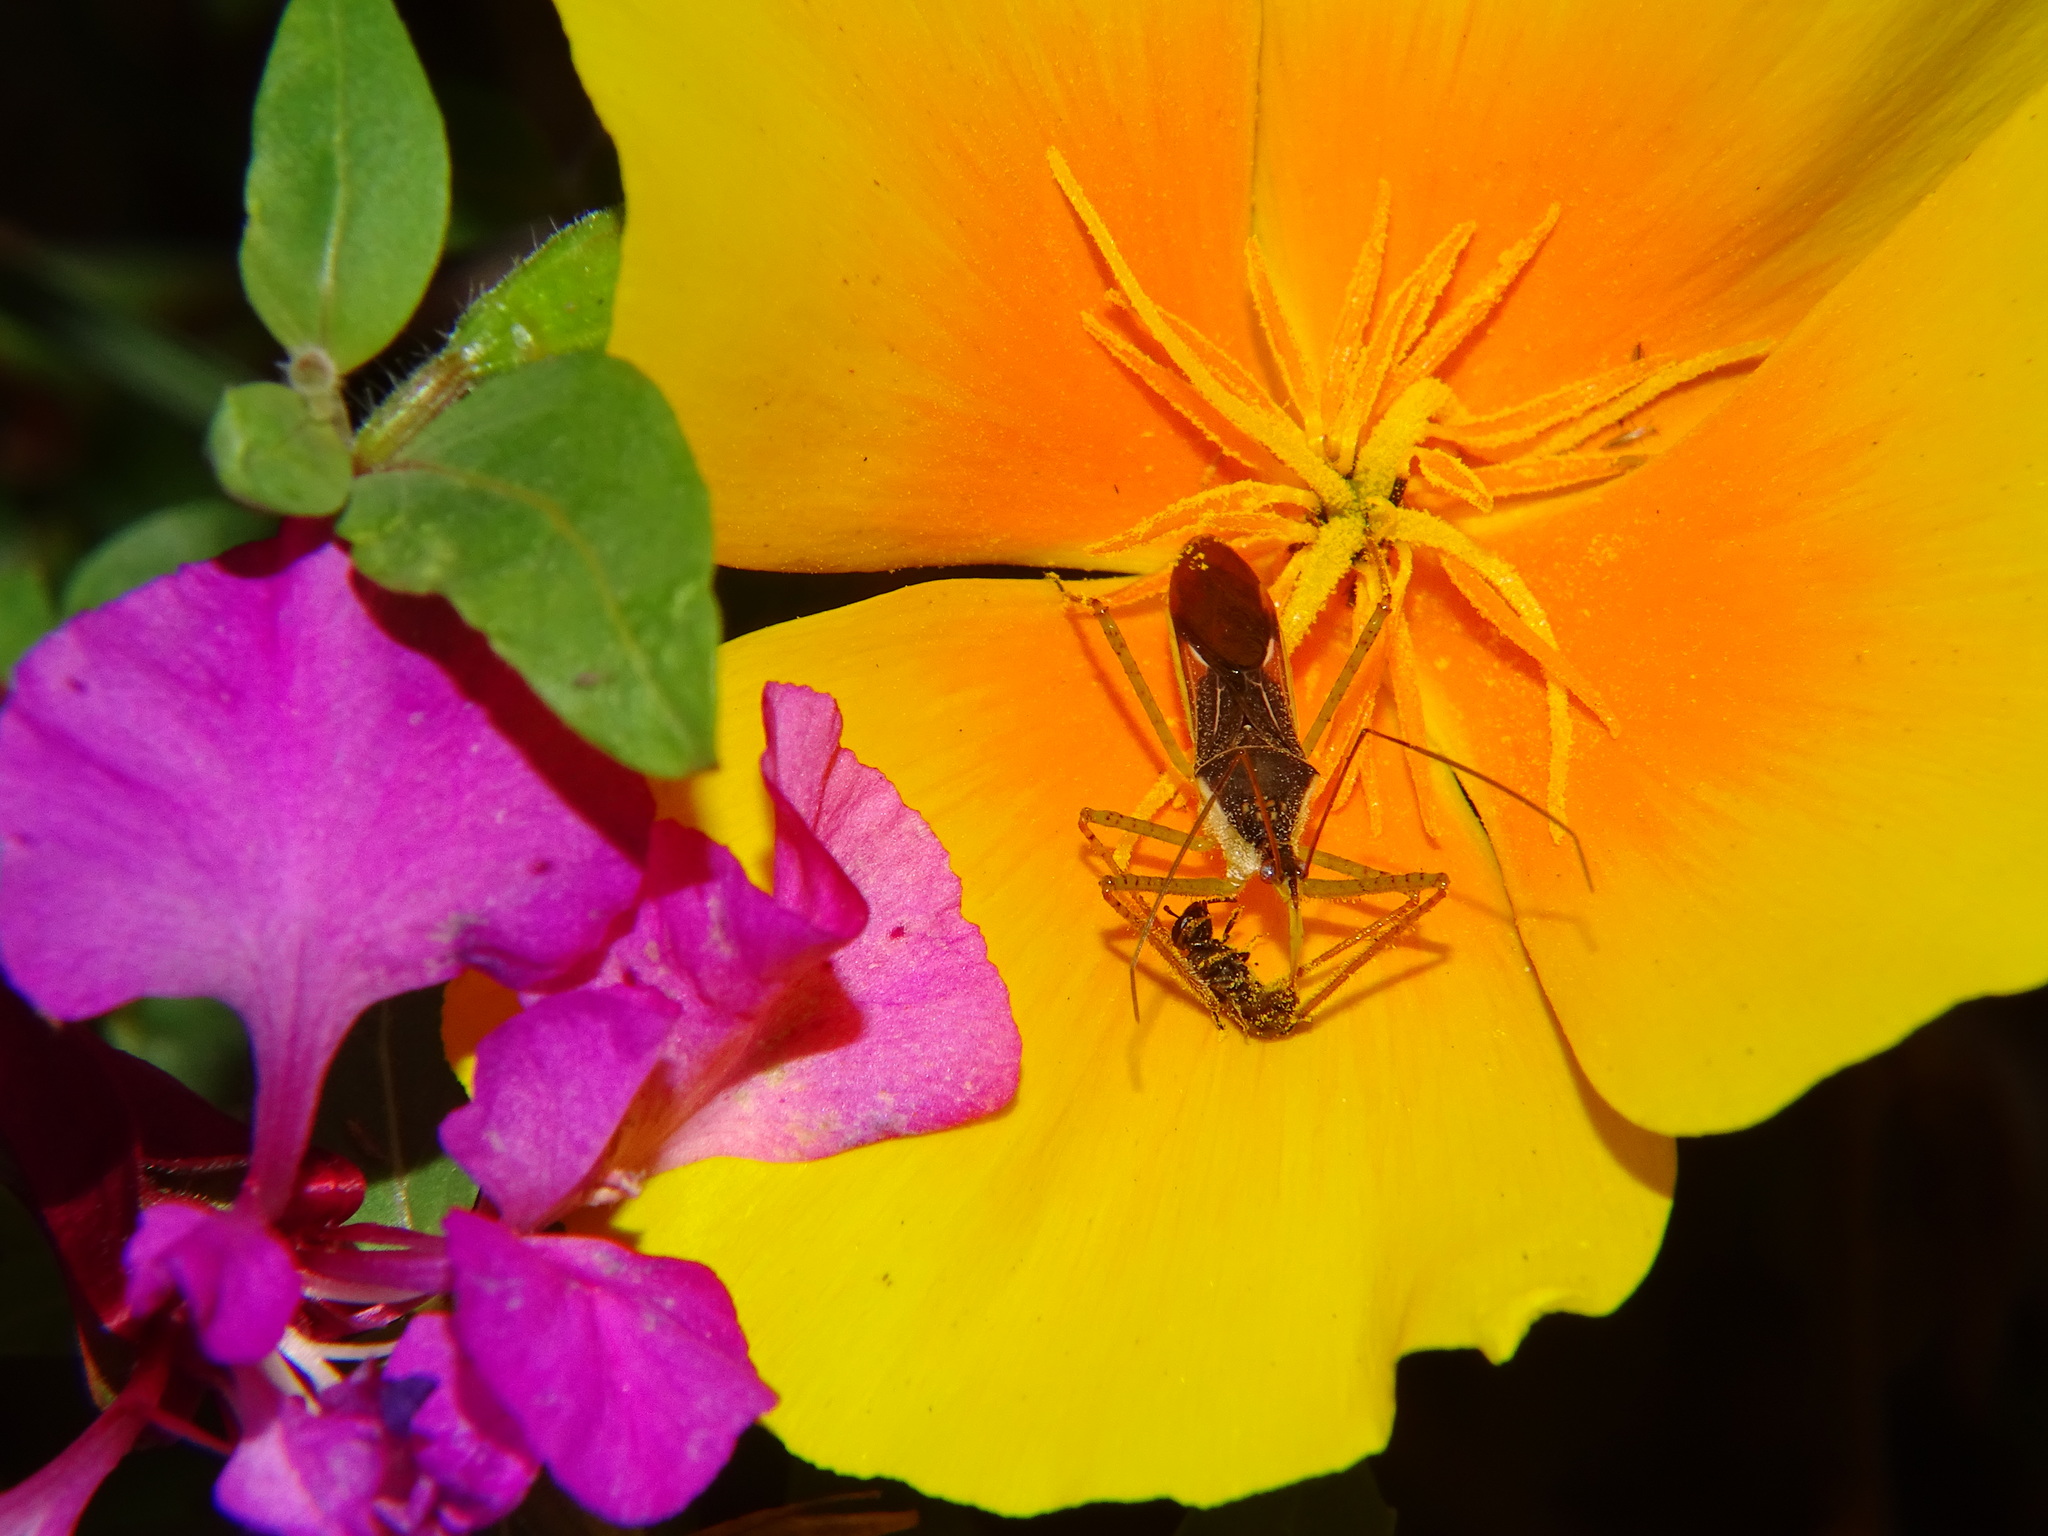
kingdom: Animalia
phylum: Arthropoda
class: Insecta
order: Hemiptera
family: Reduviidae
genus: Zelus
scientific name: Zelus renardii
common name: Assassin bug
